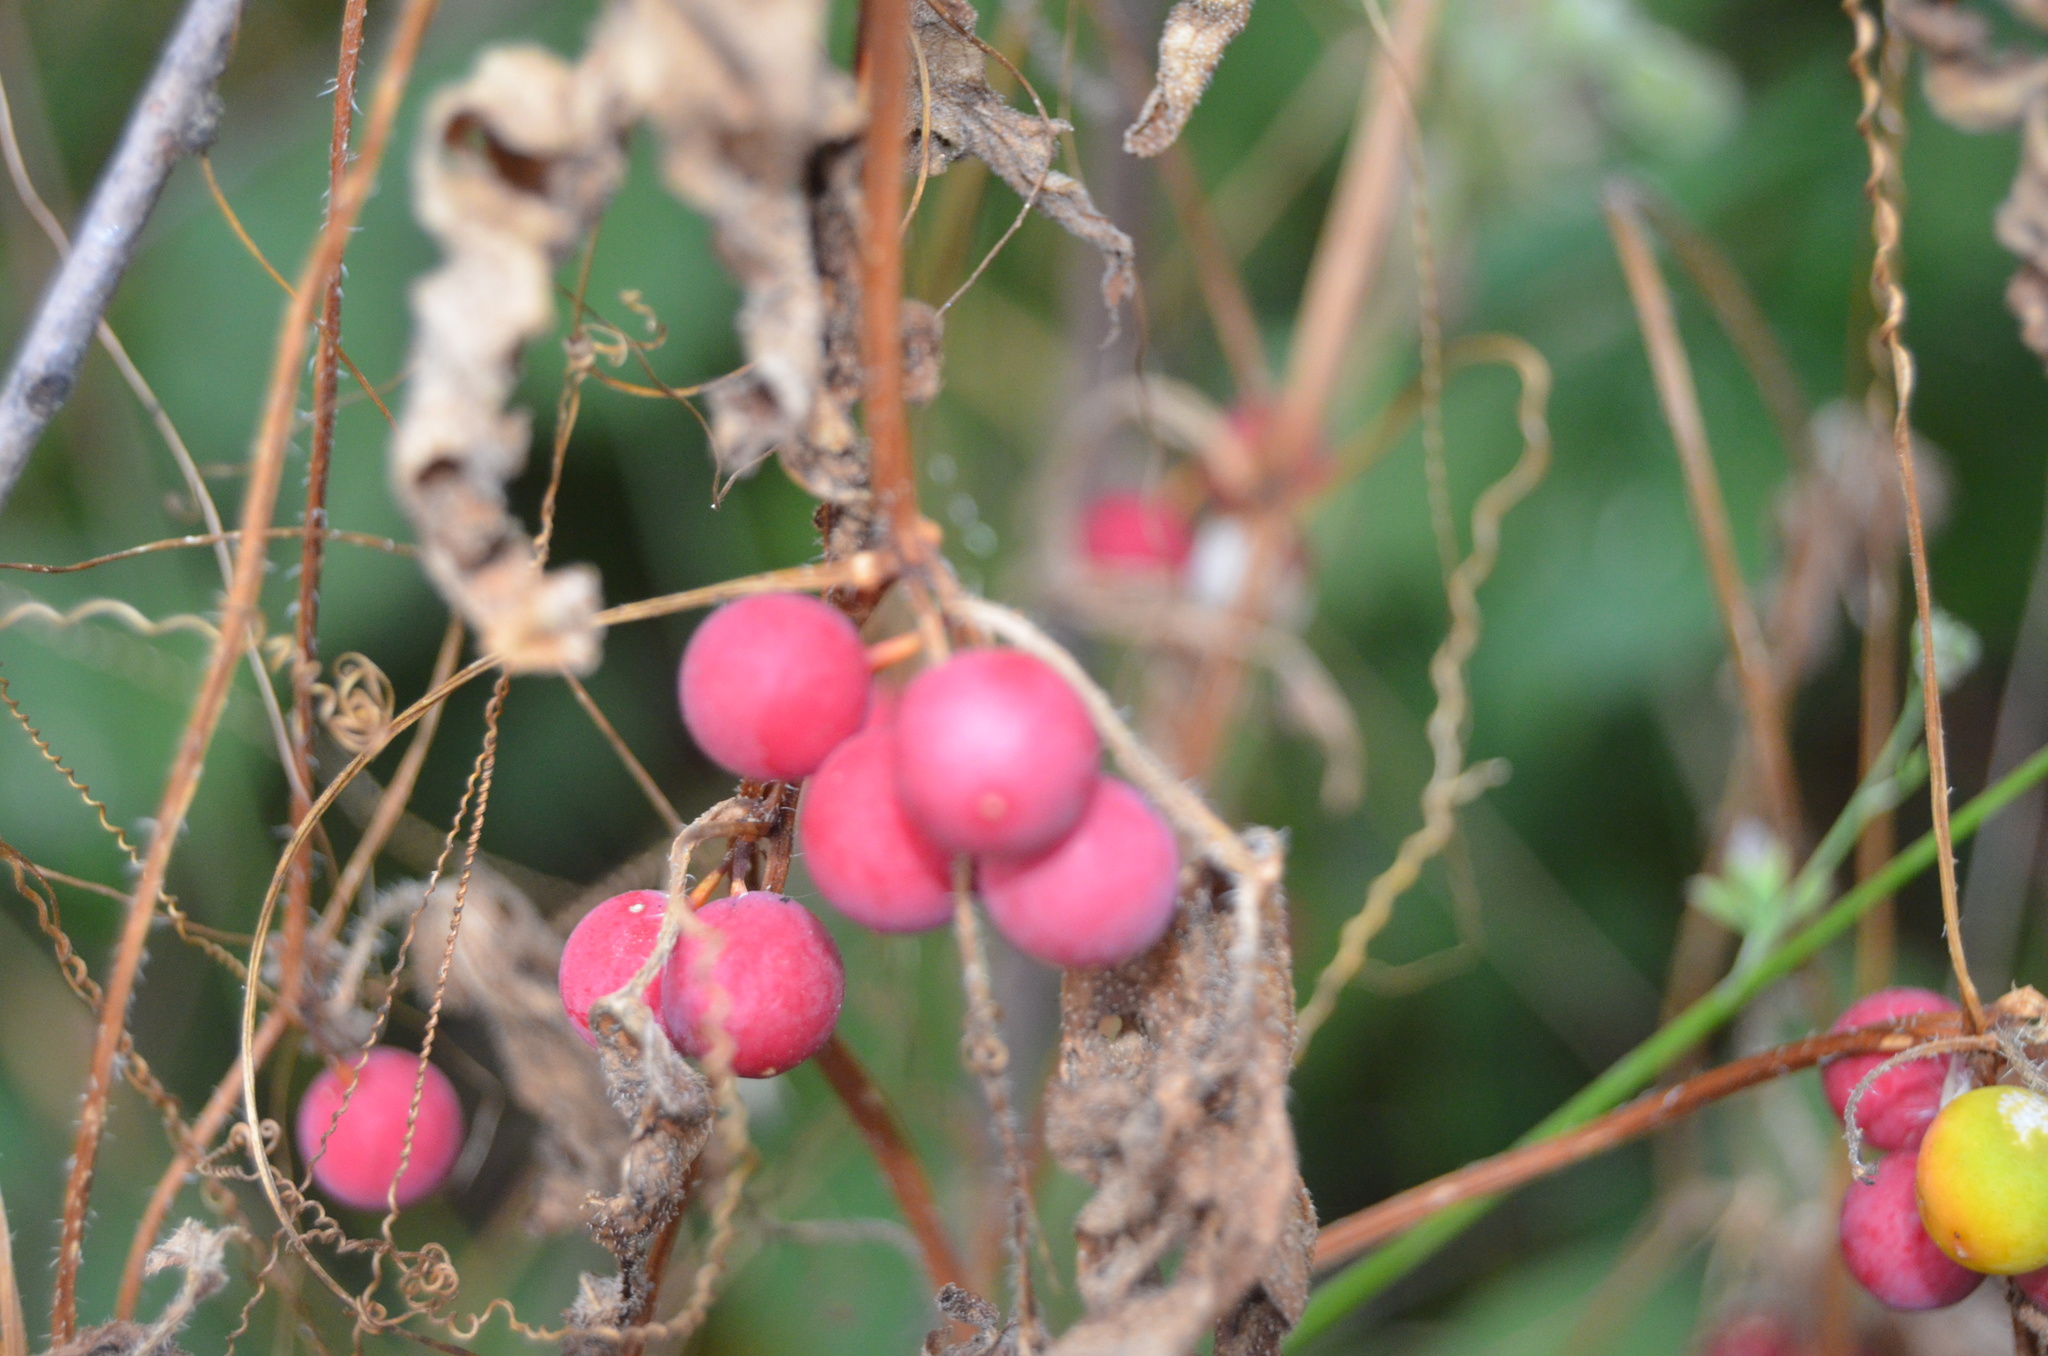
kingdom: Plantae
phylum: Tracheophyta
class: Magnoliopsida
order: Cucurbitales
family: Cucurbitaceae
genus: Bryonia
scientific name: Bryonia dioica
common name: White bryony
